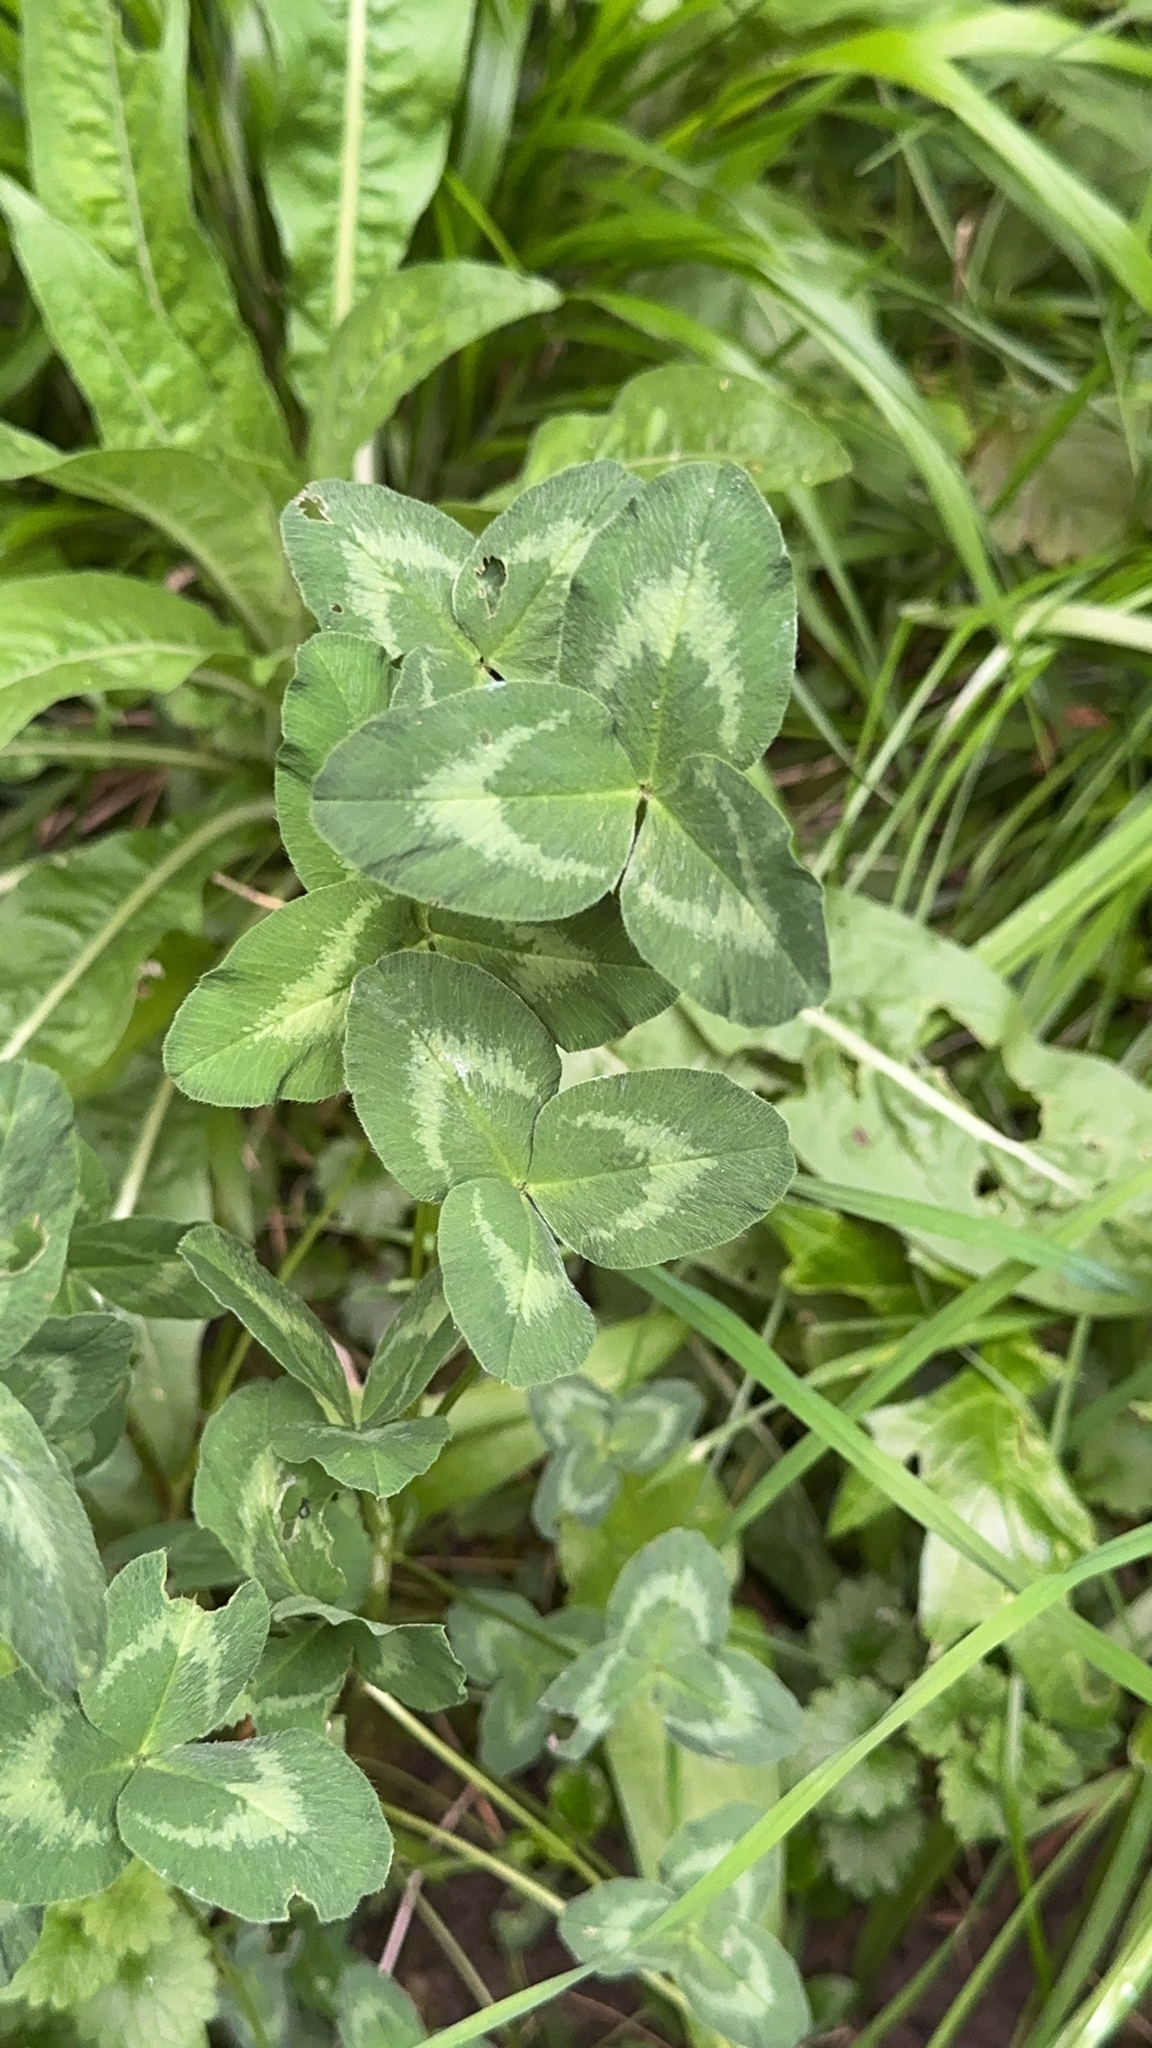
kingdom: Plantae
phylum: Tracheophyta
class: Magnoliopsida
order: Fabales
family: Fabaceae
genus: Trifolium
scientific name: Trifolium pratense
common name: Red clover
